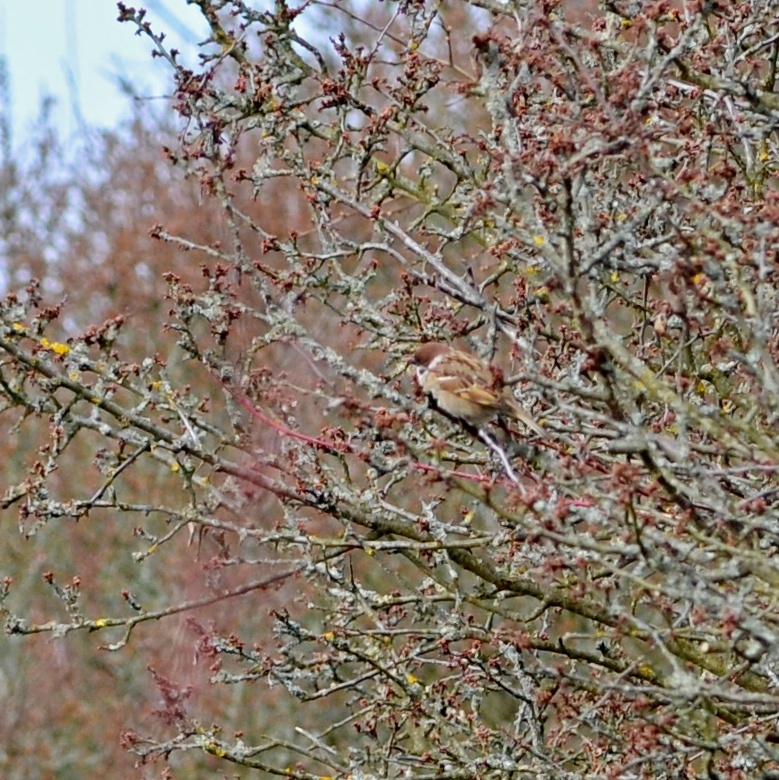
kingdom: Animalia
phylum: Chordata
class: Aves
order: Passeriformes
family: Passeridae
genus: Passer
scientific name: Passer montanus
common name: Eurasian tree sparrow
